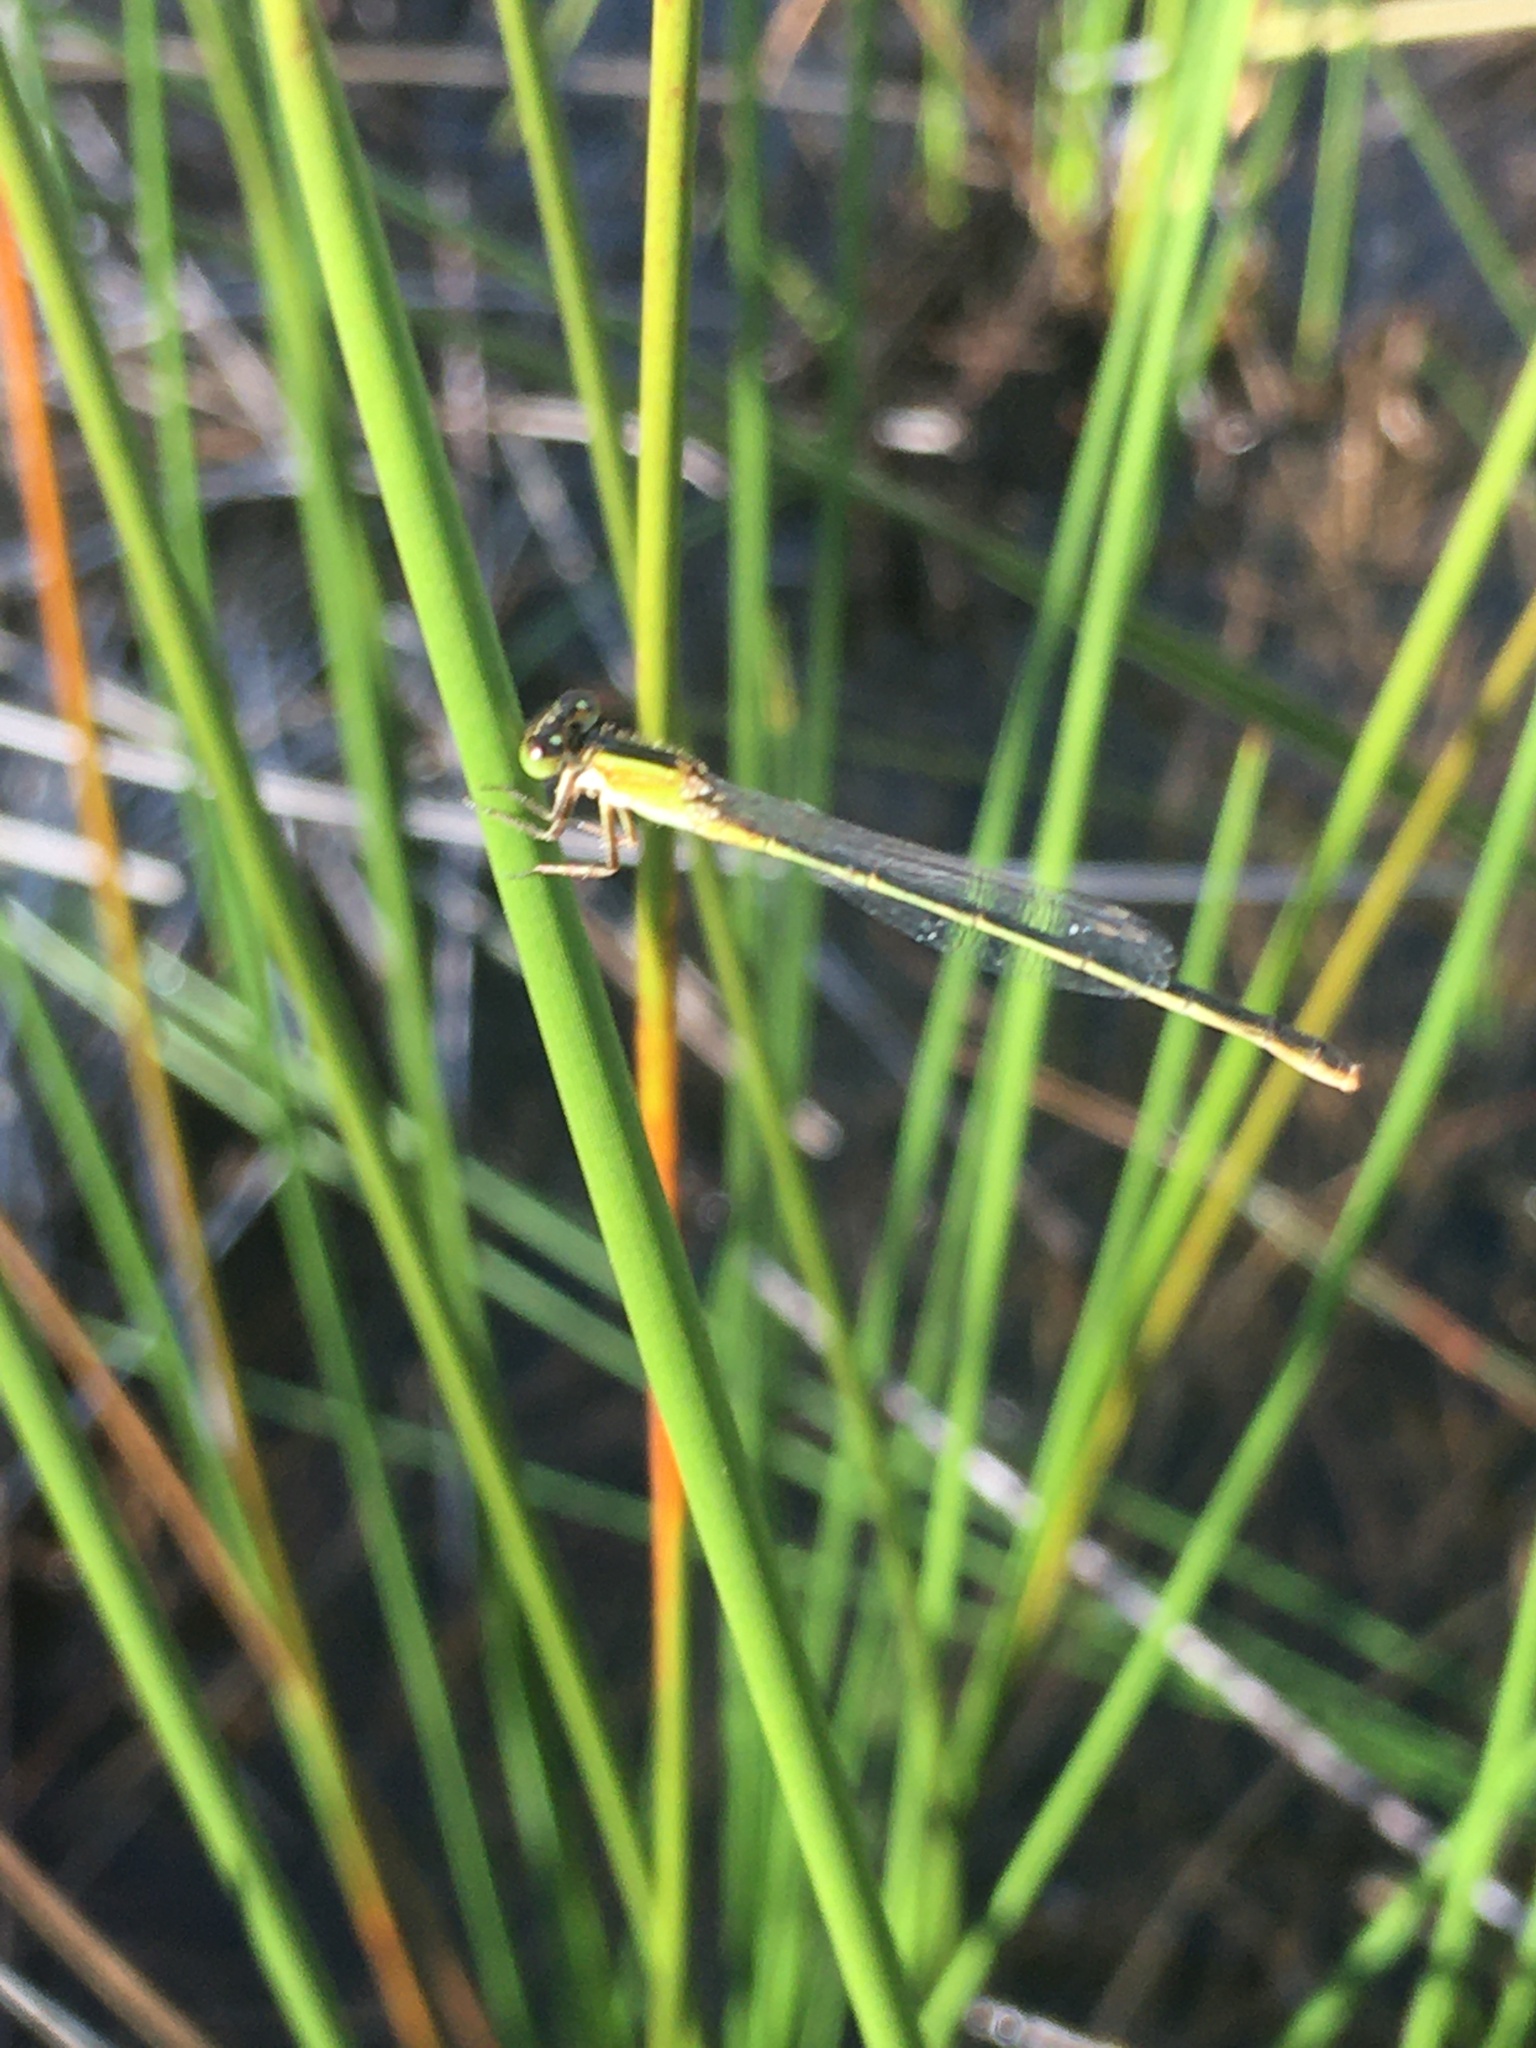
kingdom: Animalia
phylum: Arthropoda
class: Insecta
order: Odonata
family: Coenagrionidae
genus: Ischnura
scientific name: Ischnura ramburii
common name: Rambur's forktail
